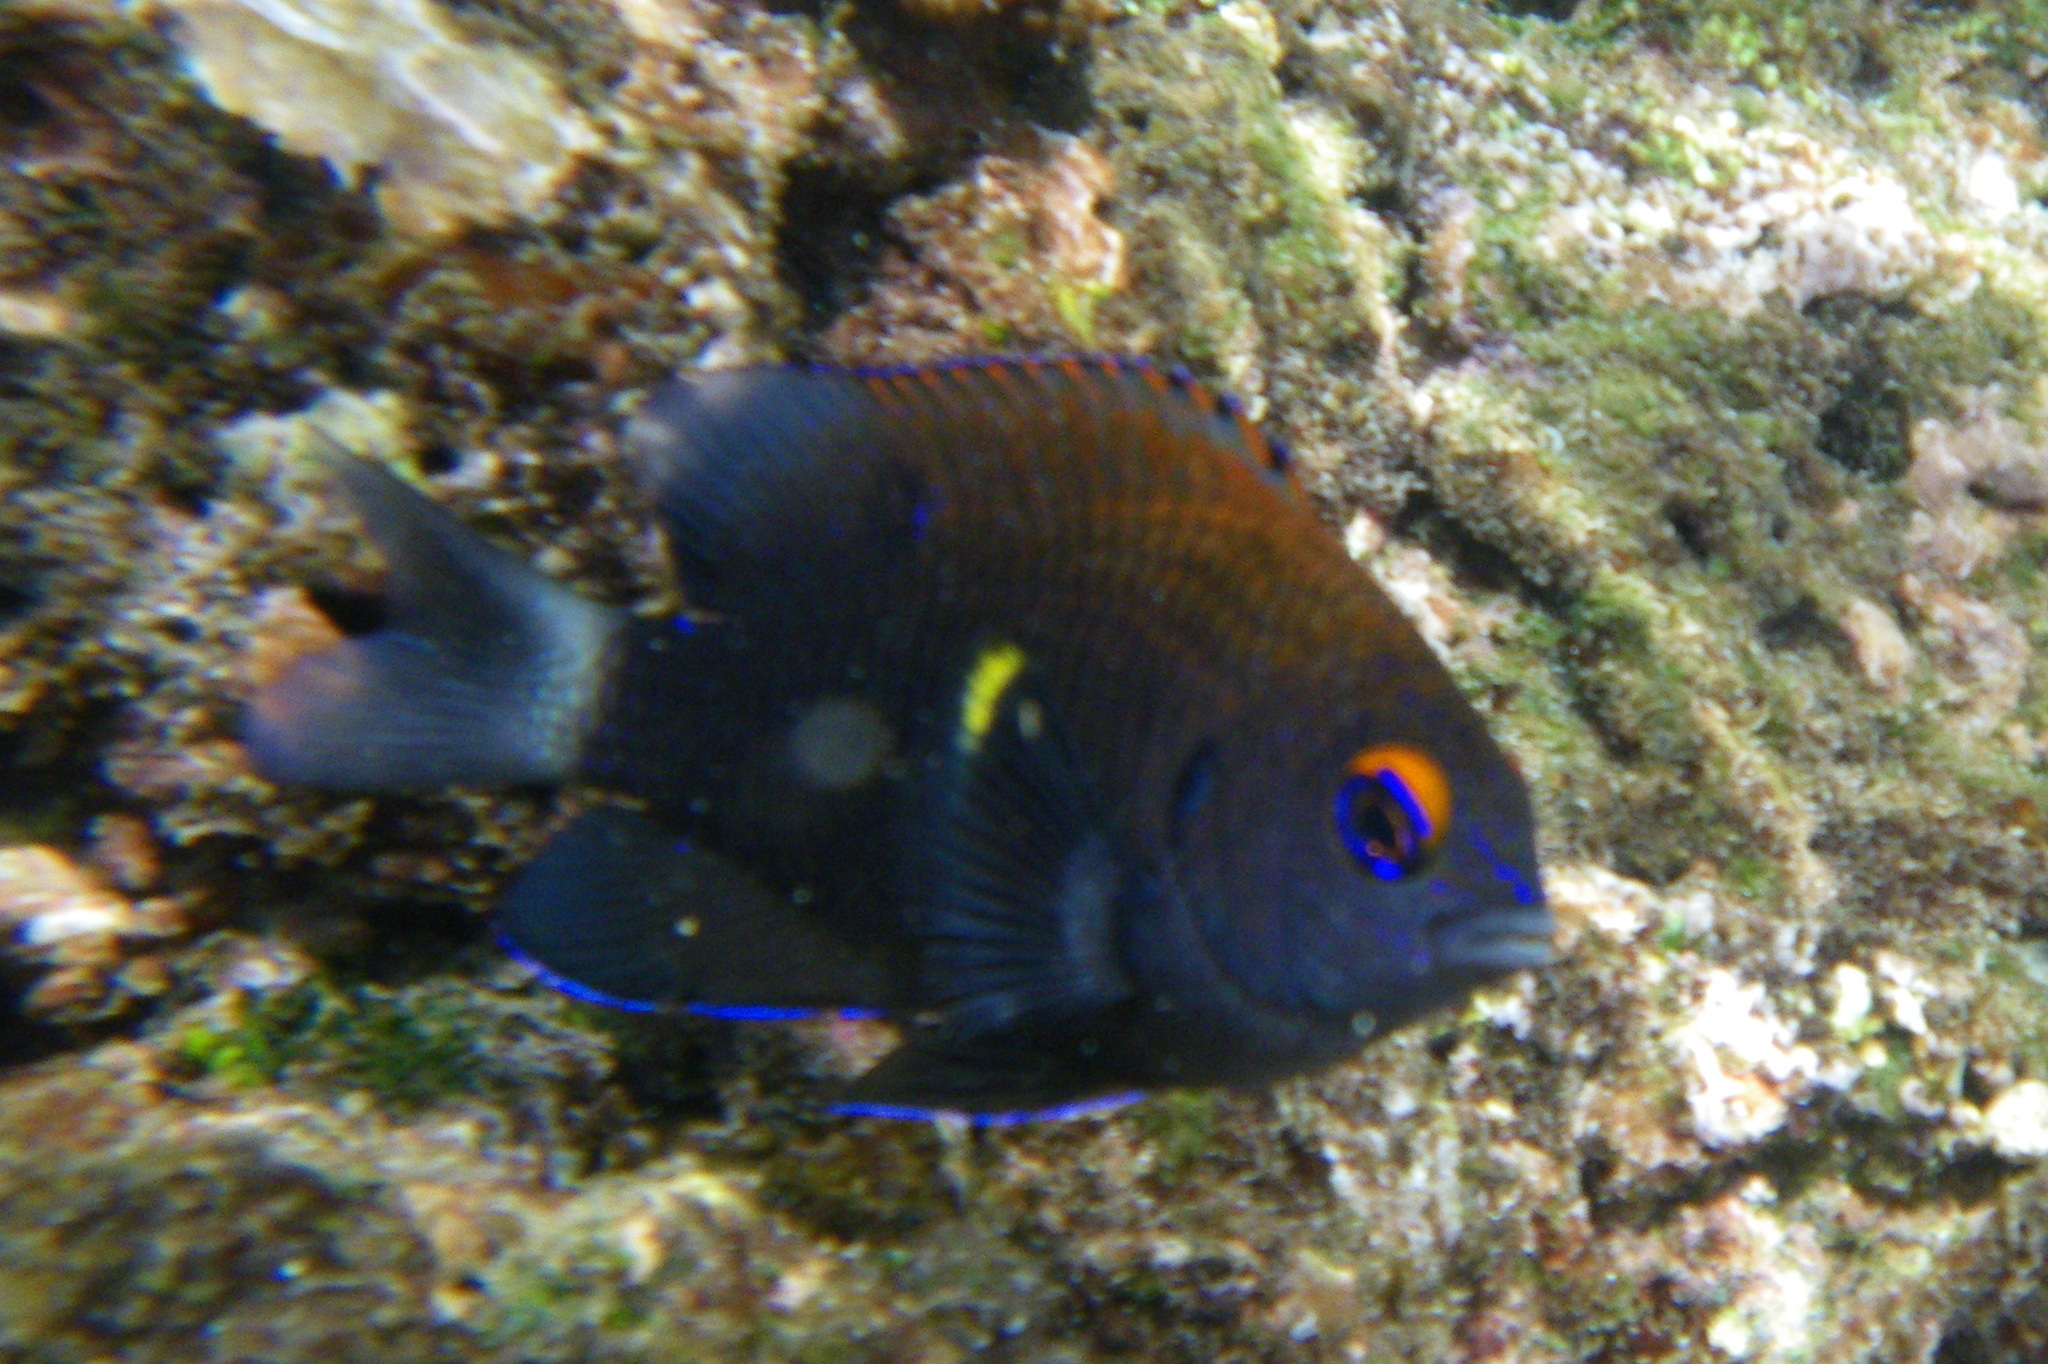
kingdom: Animalia
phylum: Chordata
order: Perciformes
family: Pomacentridae
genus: Stegastes
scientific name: Stegastes beebei
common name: Galapagos ringtail damselfish
